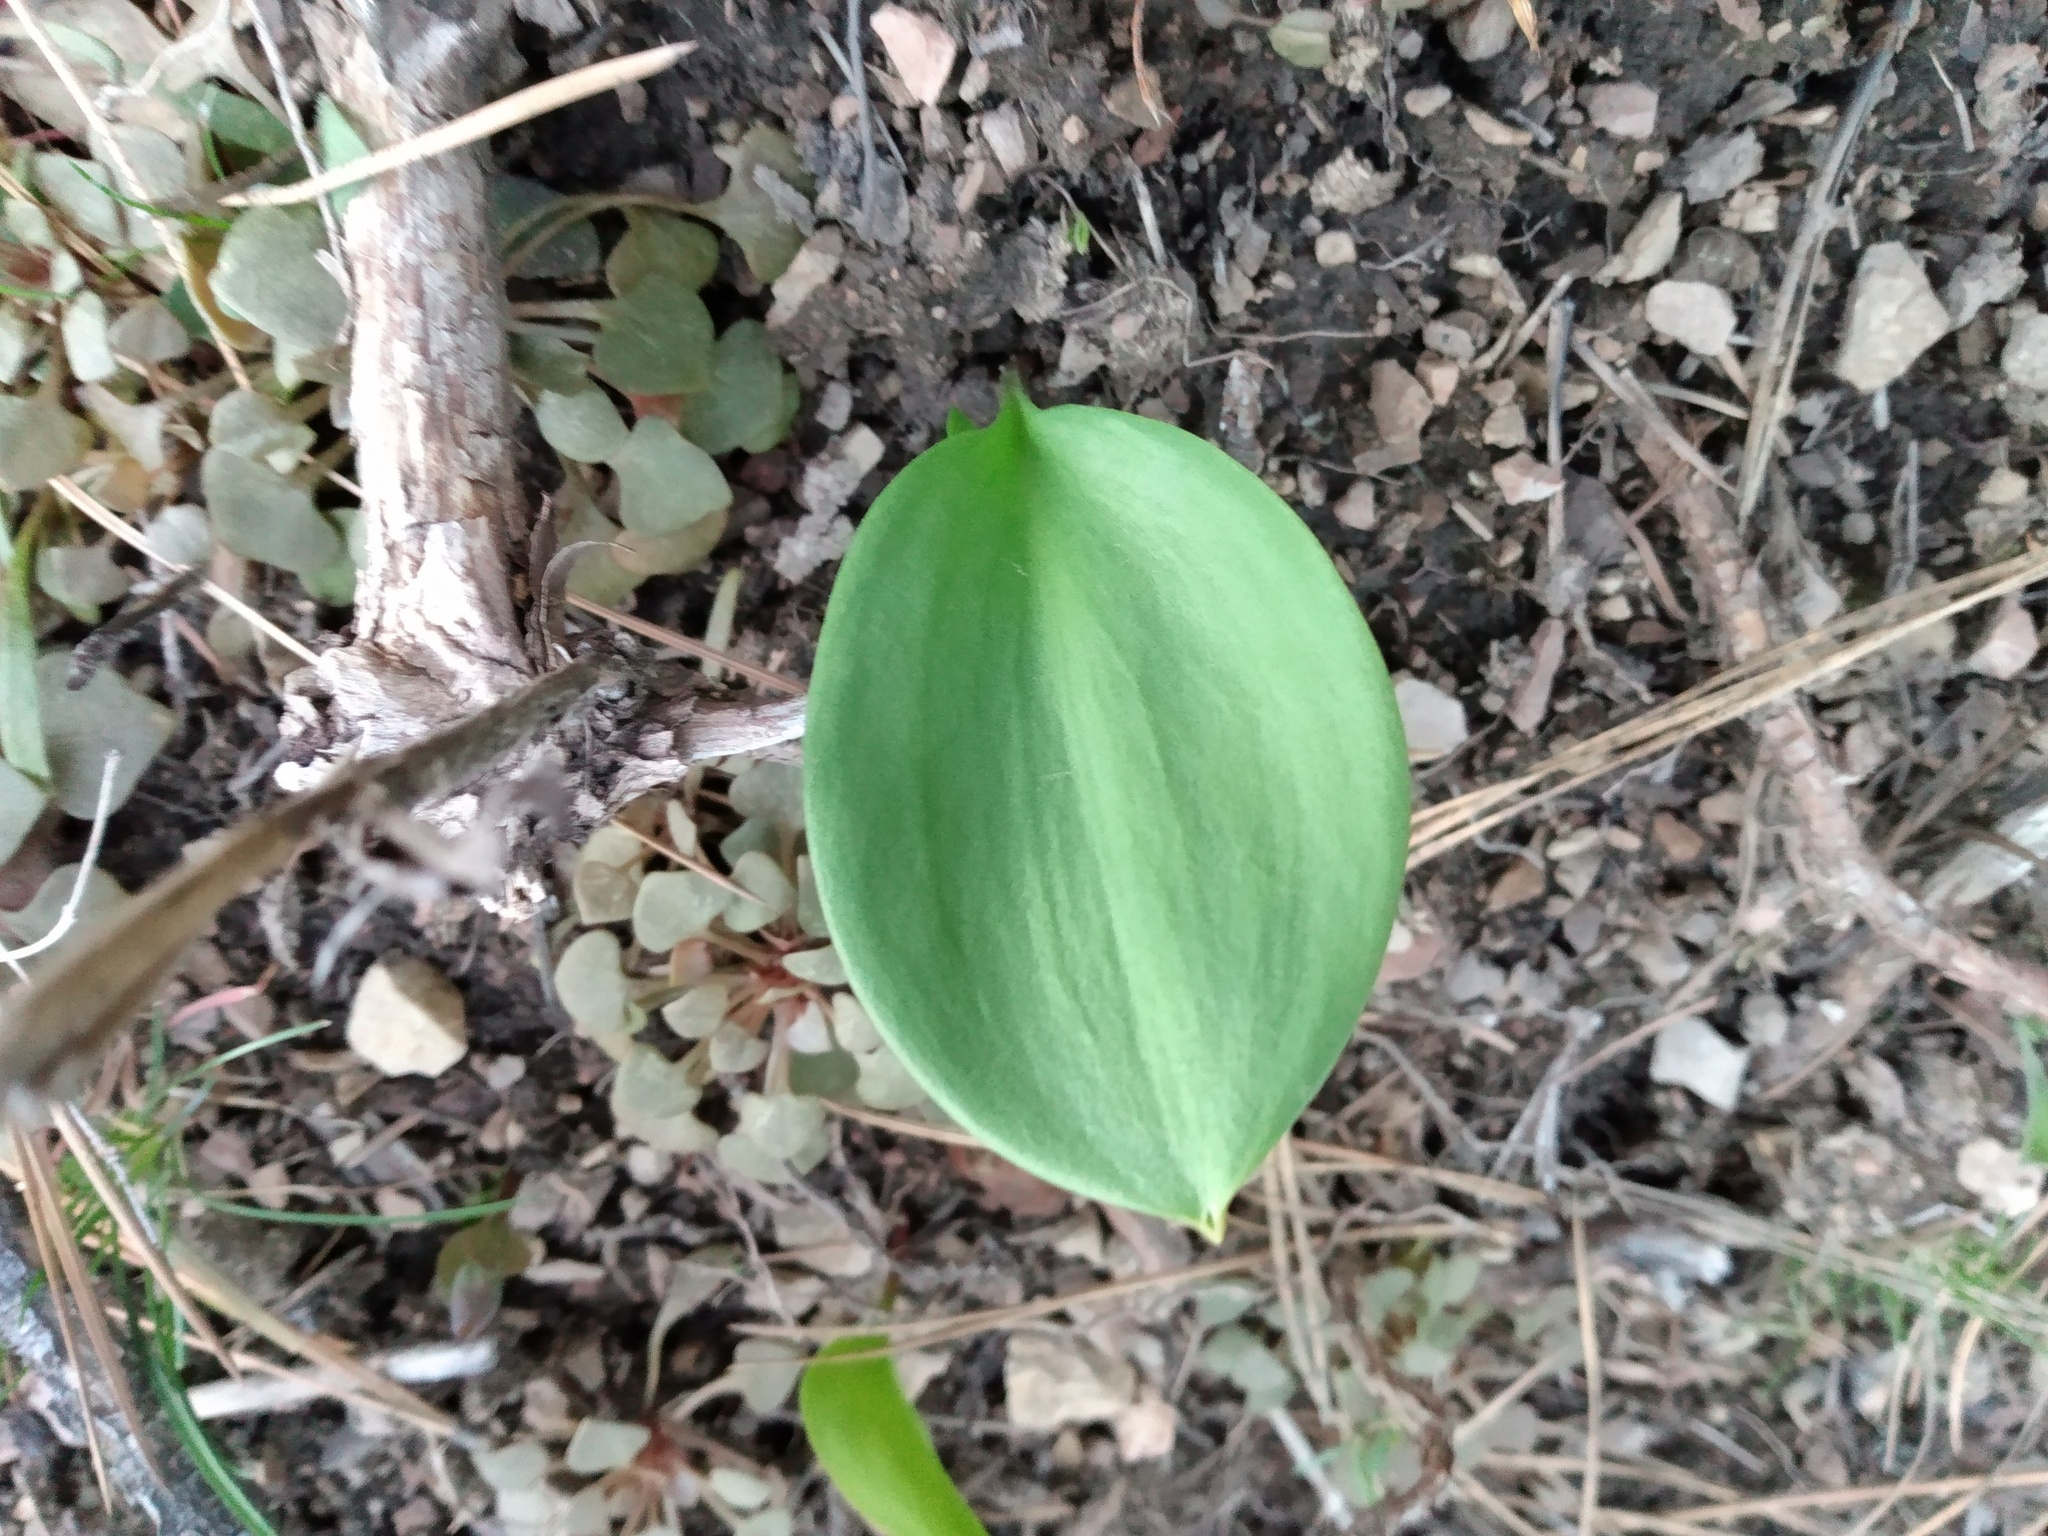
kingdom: Plantae
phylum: Tracheophyta
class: Liliopsida
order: Liliales
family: Liliaceae
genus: Fritillaria
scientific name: Fritillaria affinis
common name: Ojai fritillary
